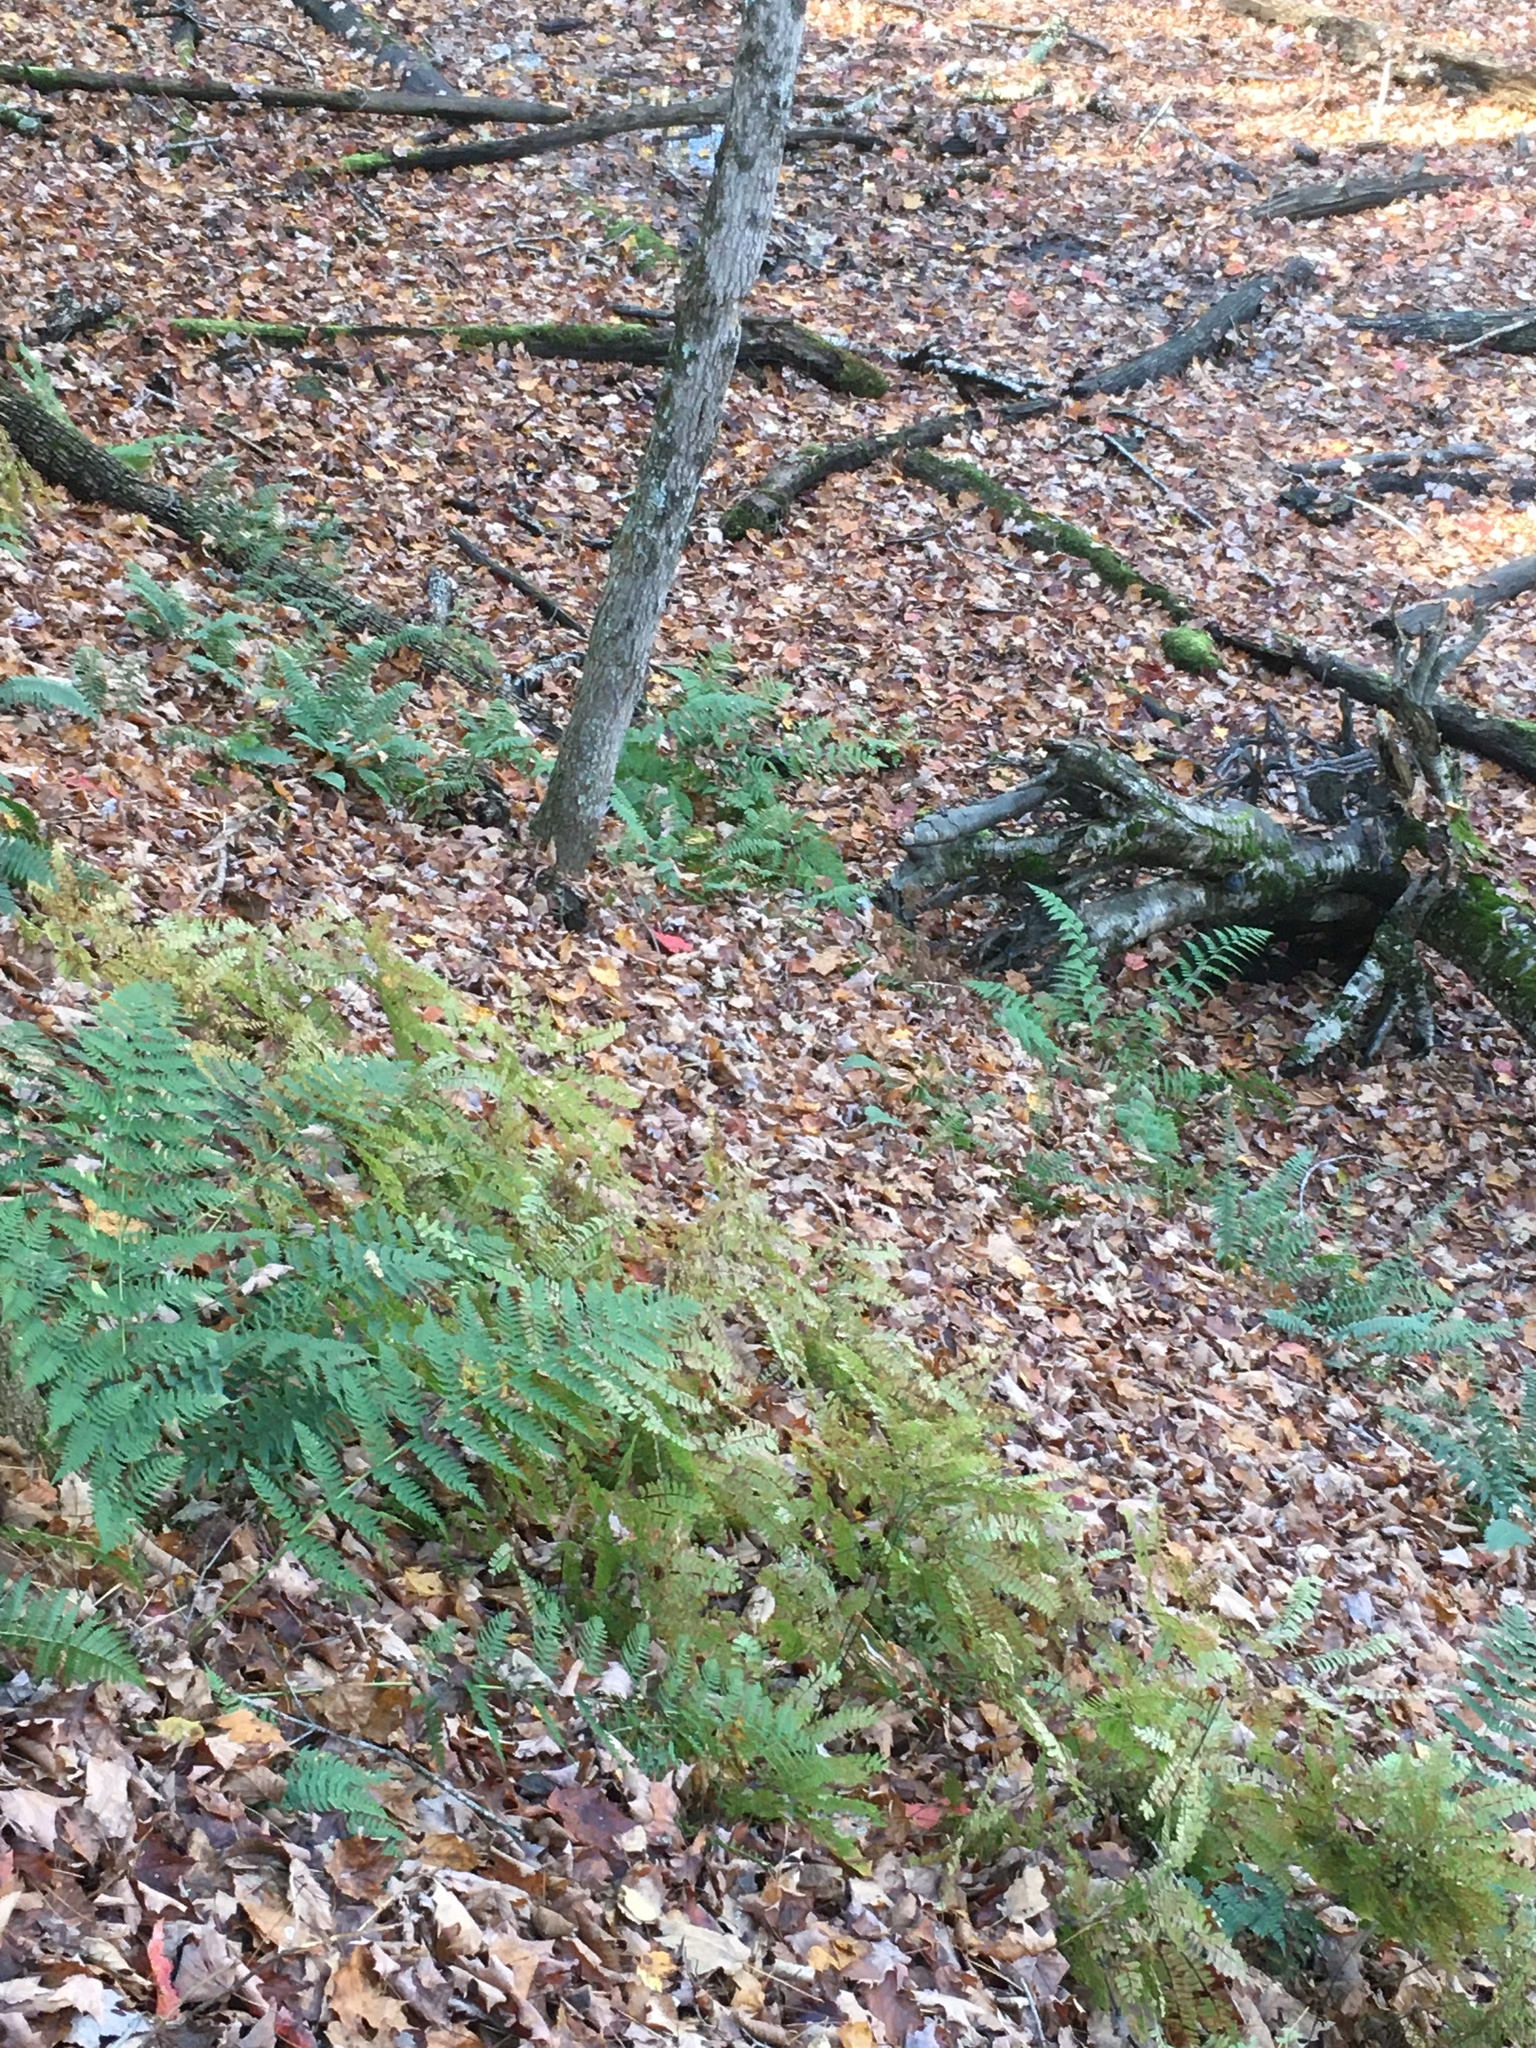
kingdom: Plantae
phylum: Tracheophyta
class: Polypodiopsida
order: Polypodiales
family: Pteridaceae
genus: Adiantum
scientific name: Adiantum pedatum
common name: Five-finger fern
